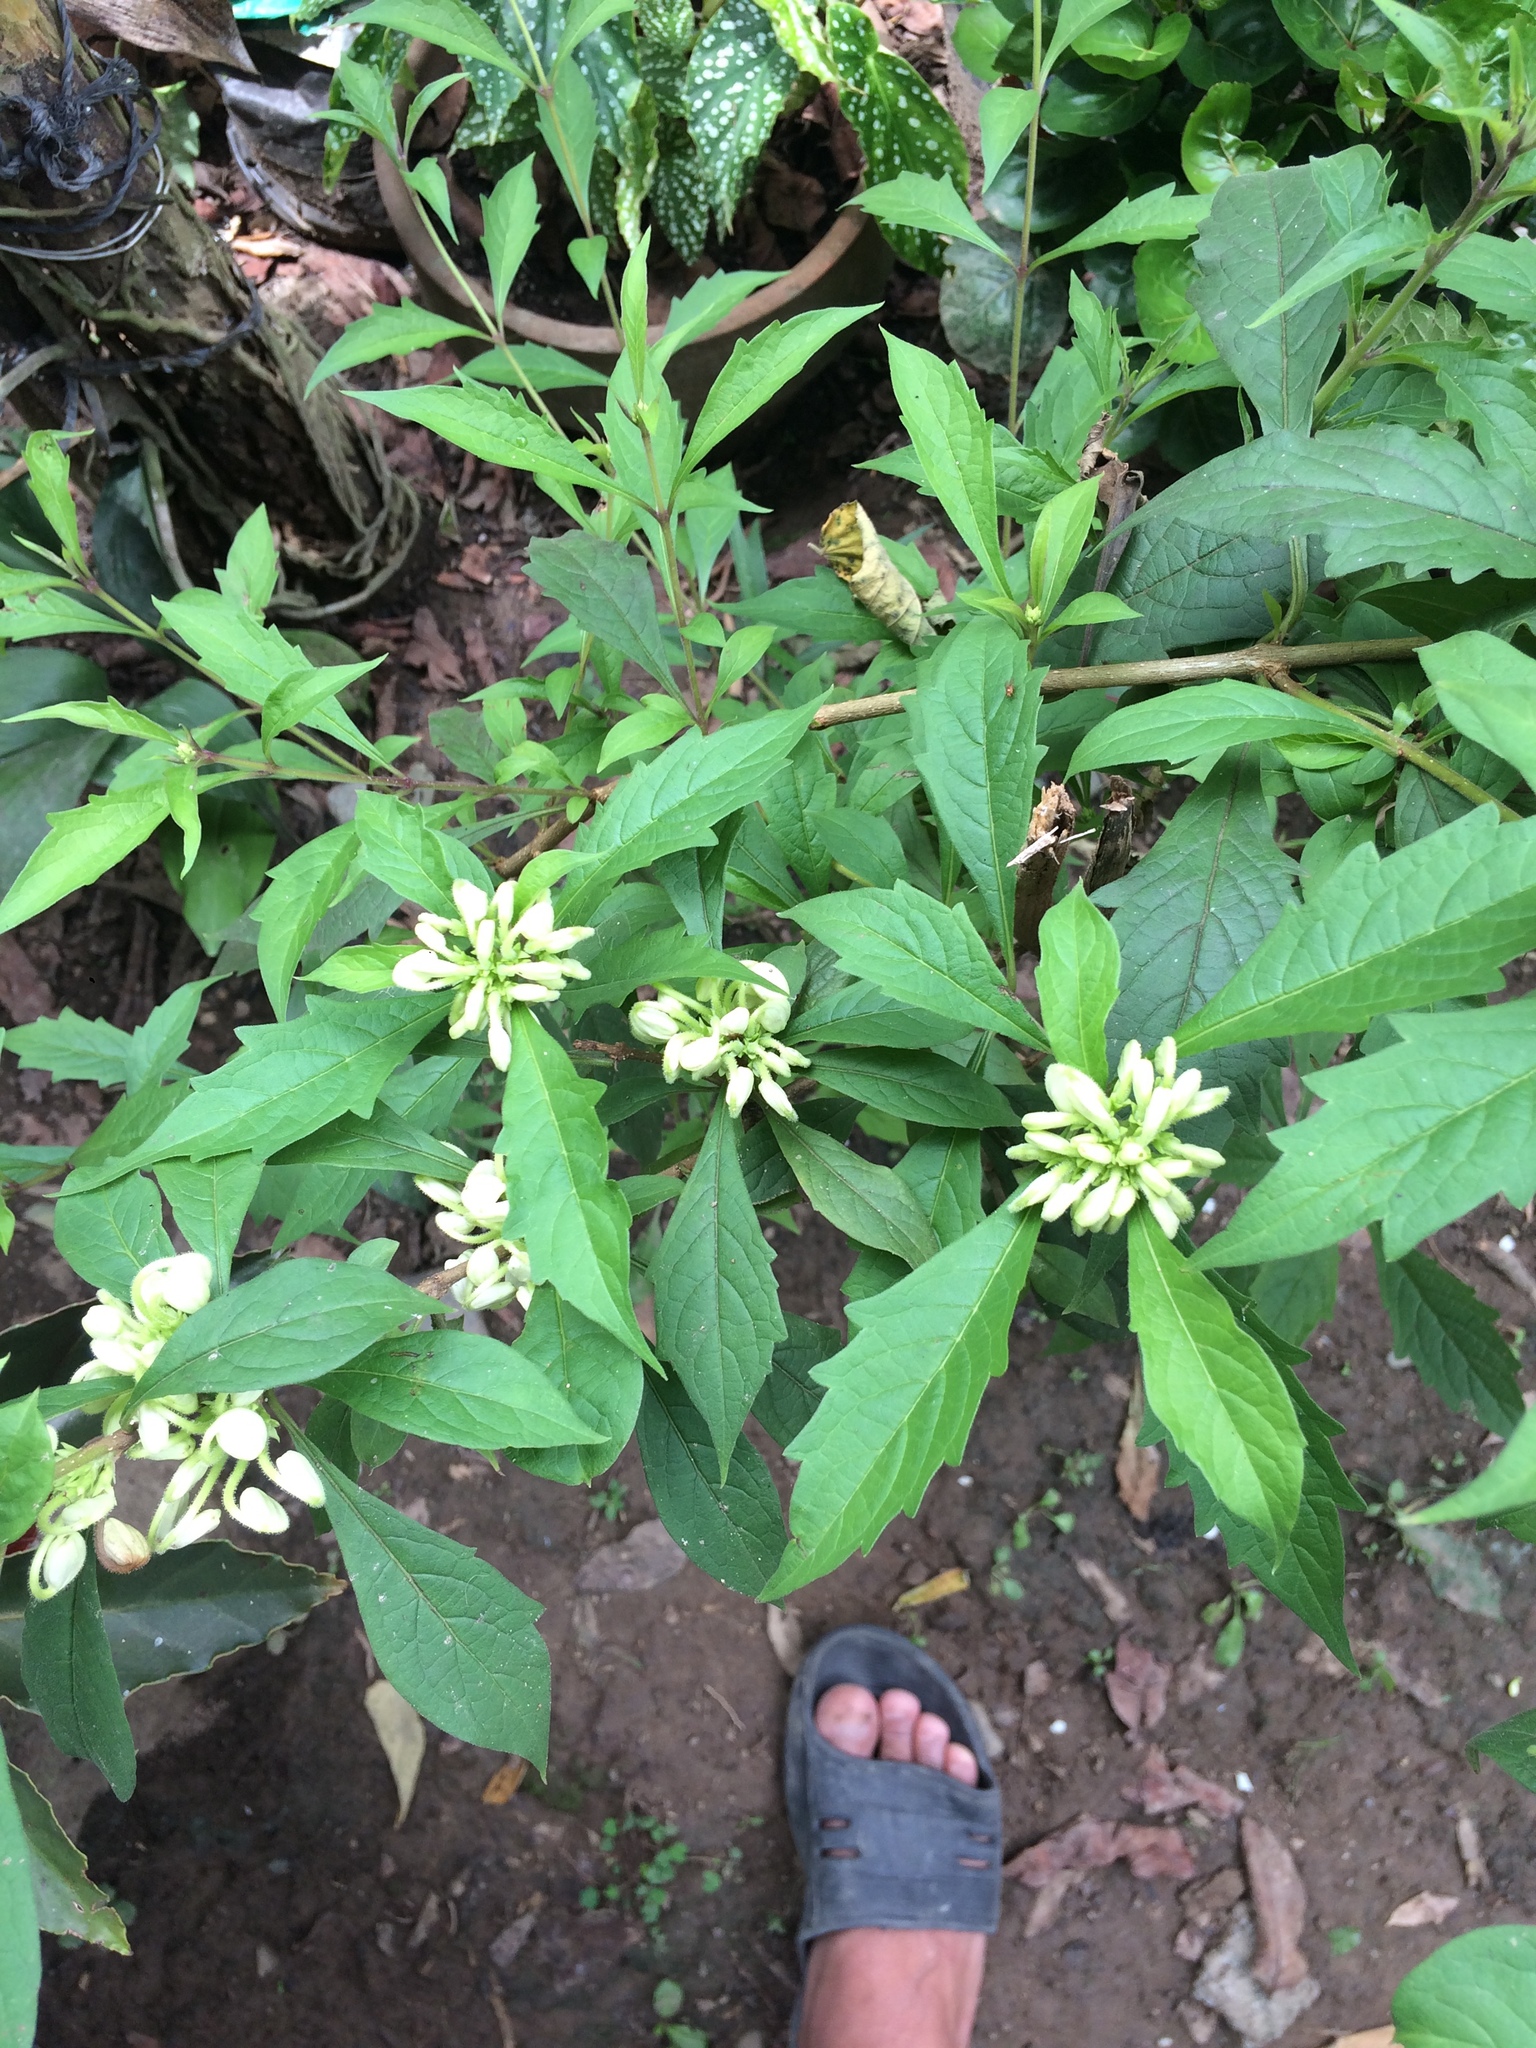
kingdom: Plantae
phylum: Tracheophyta
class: Magnoliopsida
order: Lamiales
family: Lamiaceae
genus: Rotheca
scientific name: Rotheca microphylla
